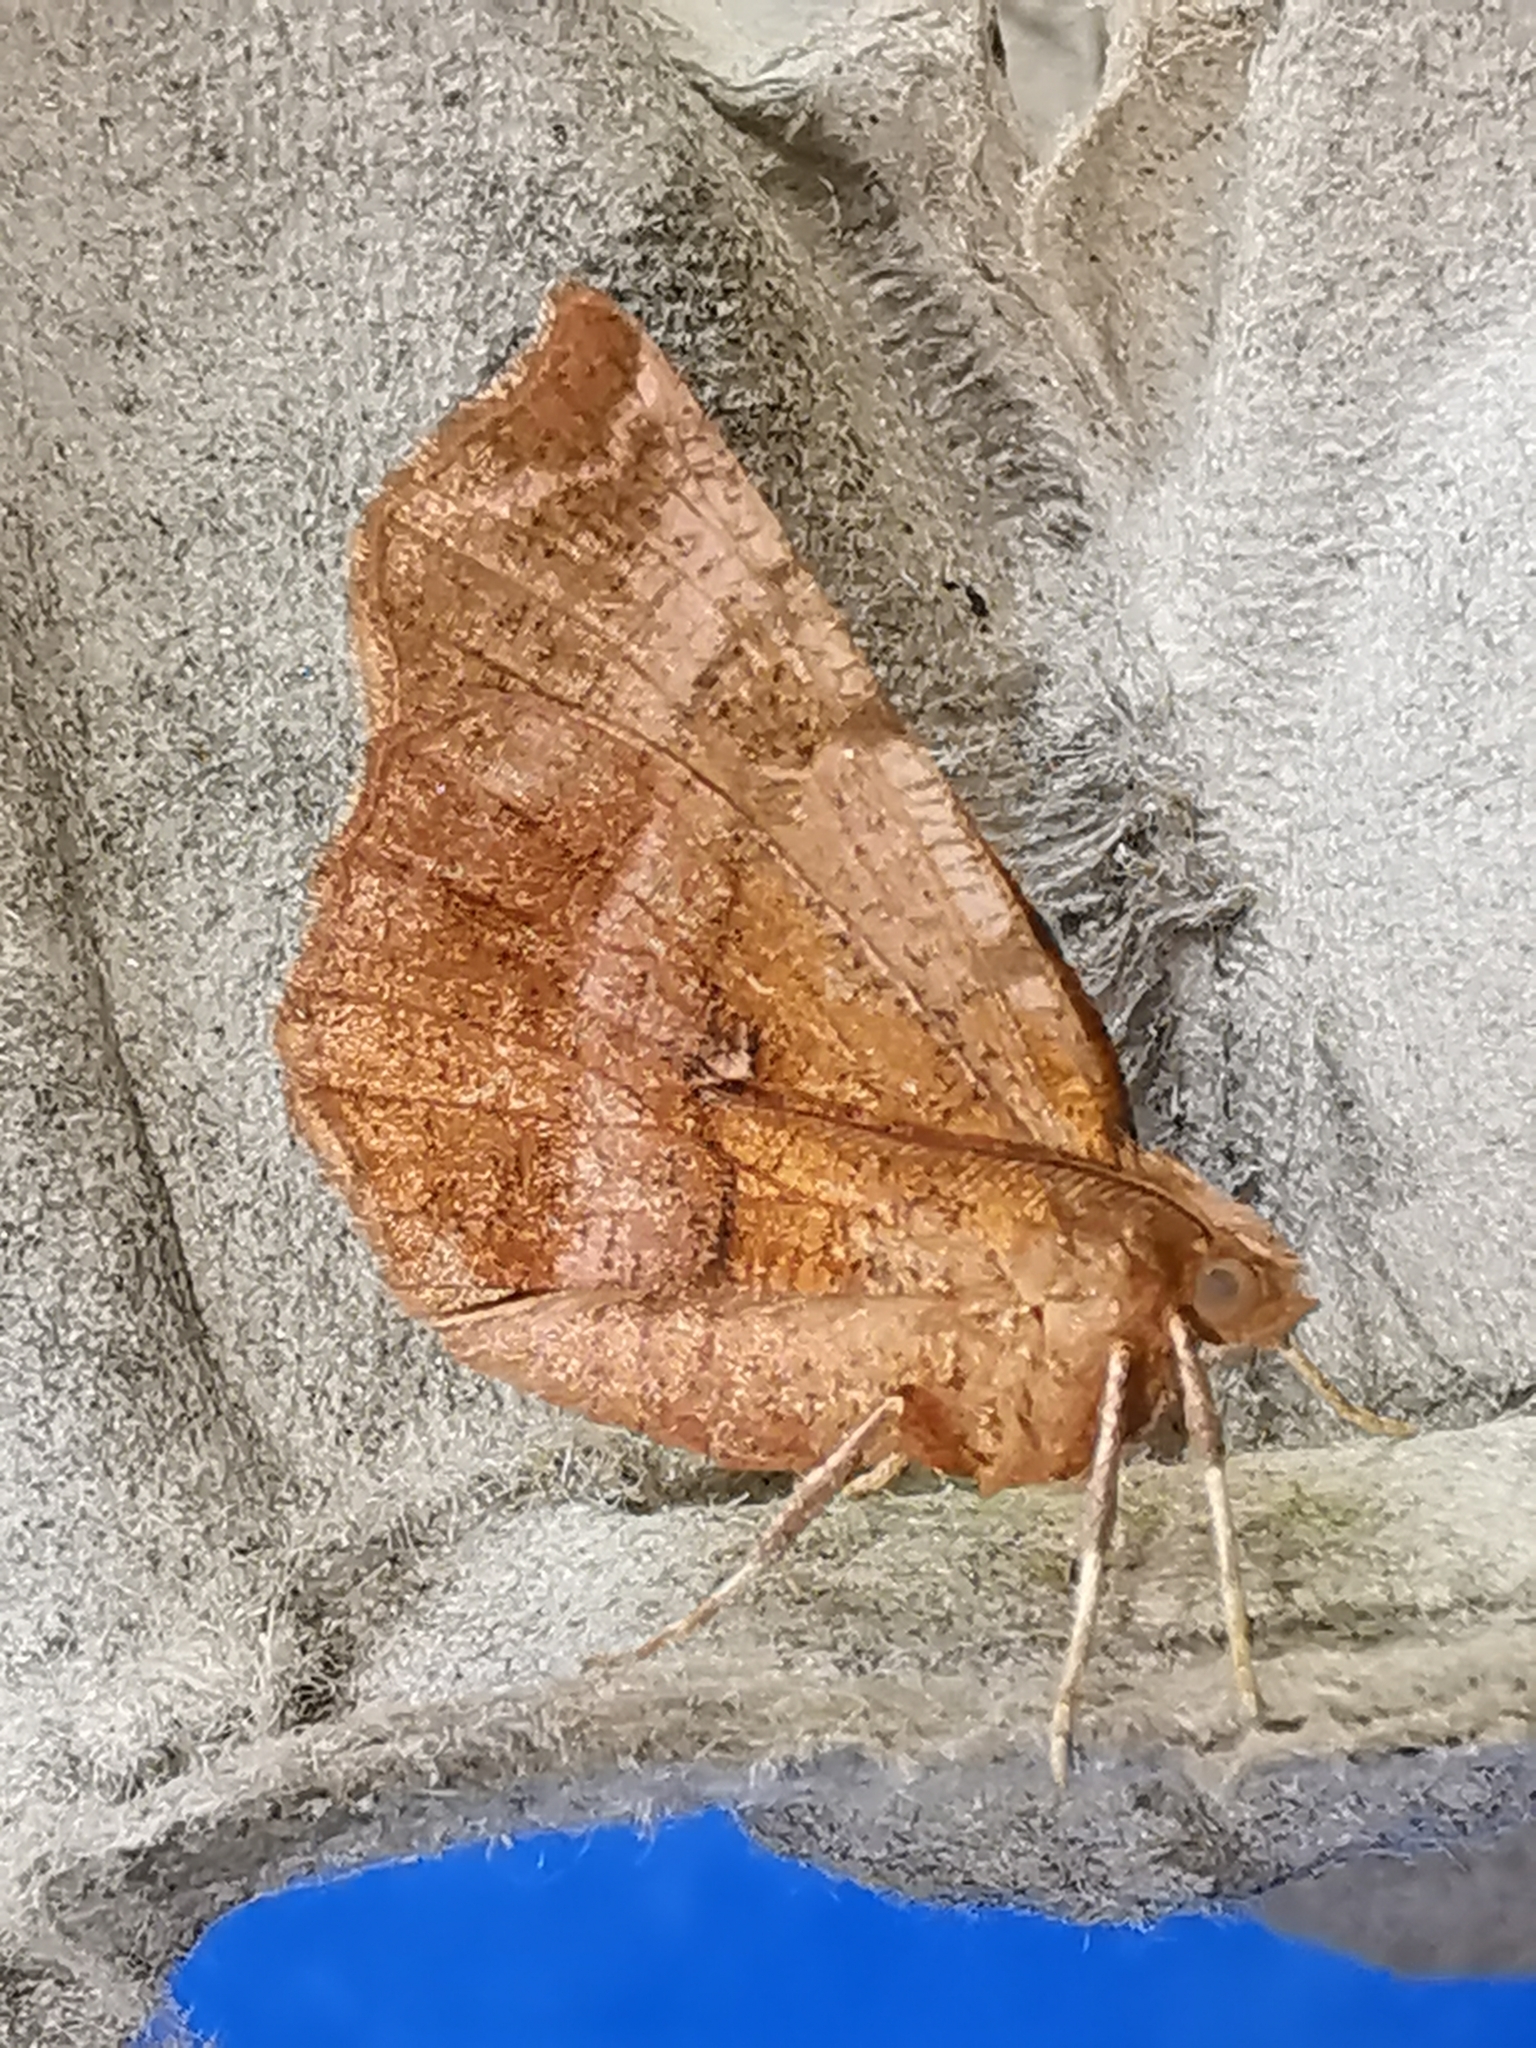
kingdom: Animalia
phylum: Arthropoda
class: Insecta
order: Lepidoptera
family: Geometridae
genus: Selenia
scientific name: Selenia dentaria
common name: Early thorn
